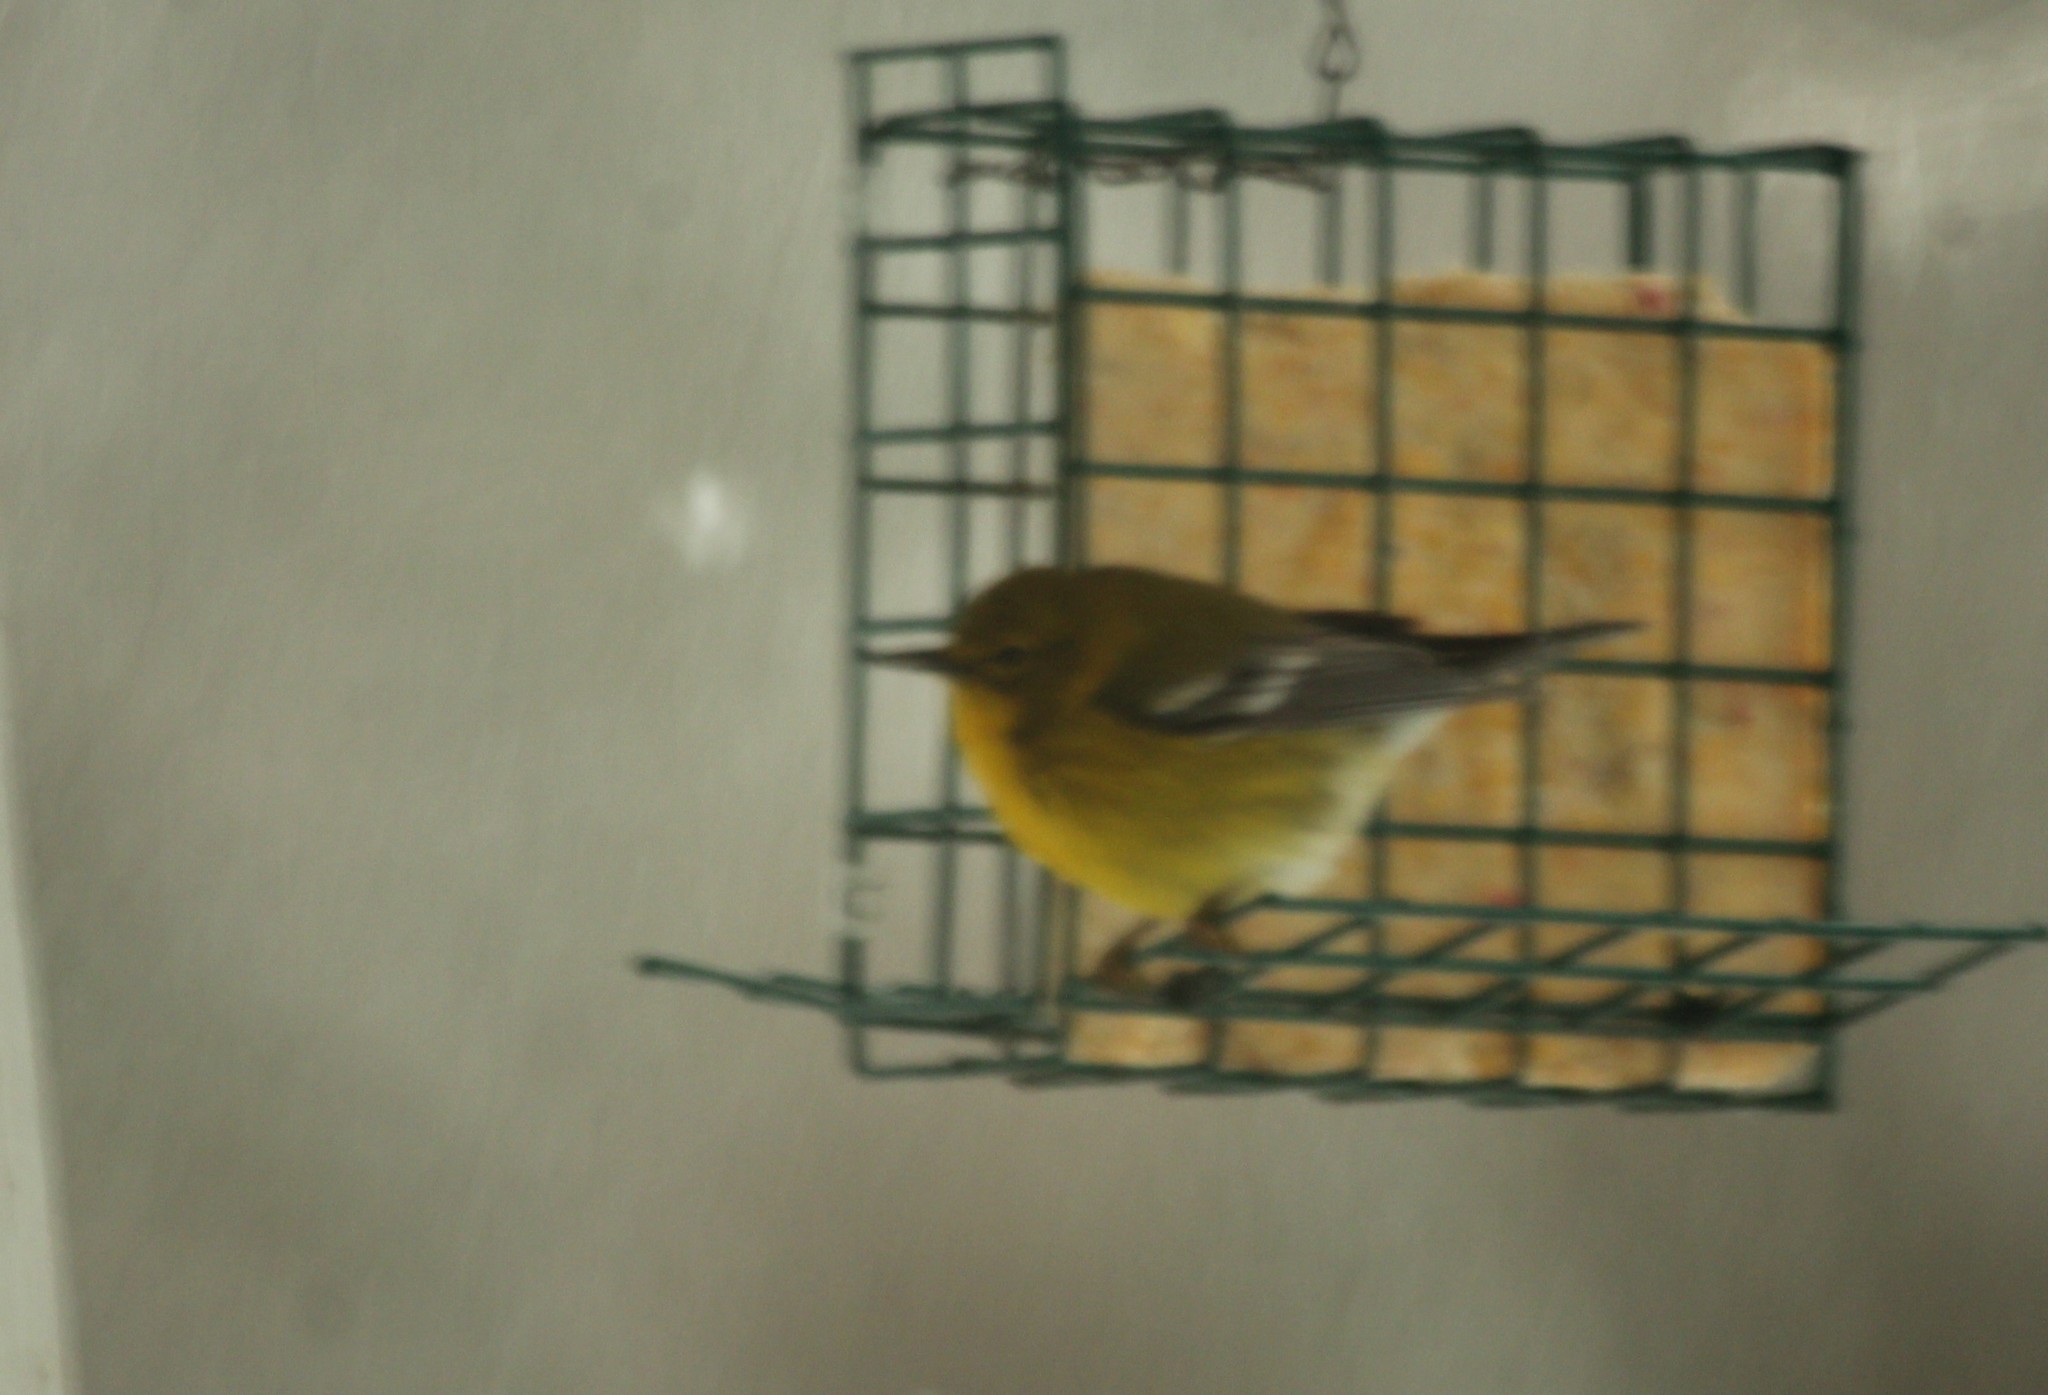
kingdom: Animalia
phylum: Chordata
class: Aves
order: Passeriformes
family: Parulidae
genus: Setophaga
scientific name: Setophaga pinus
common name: Pine warbler
